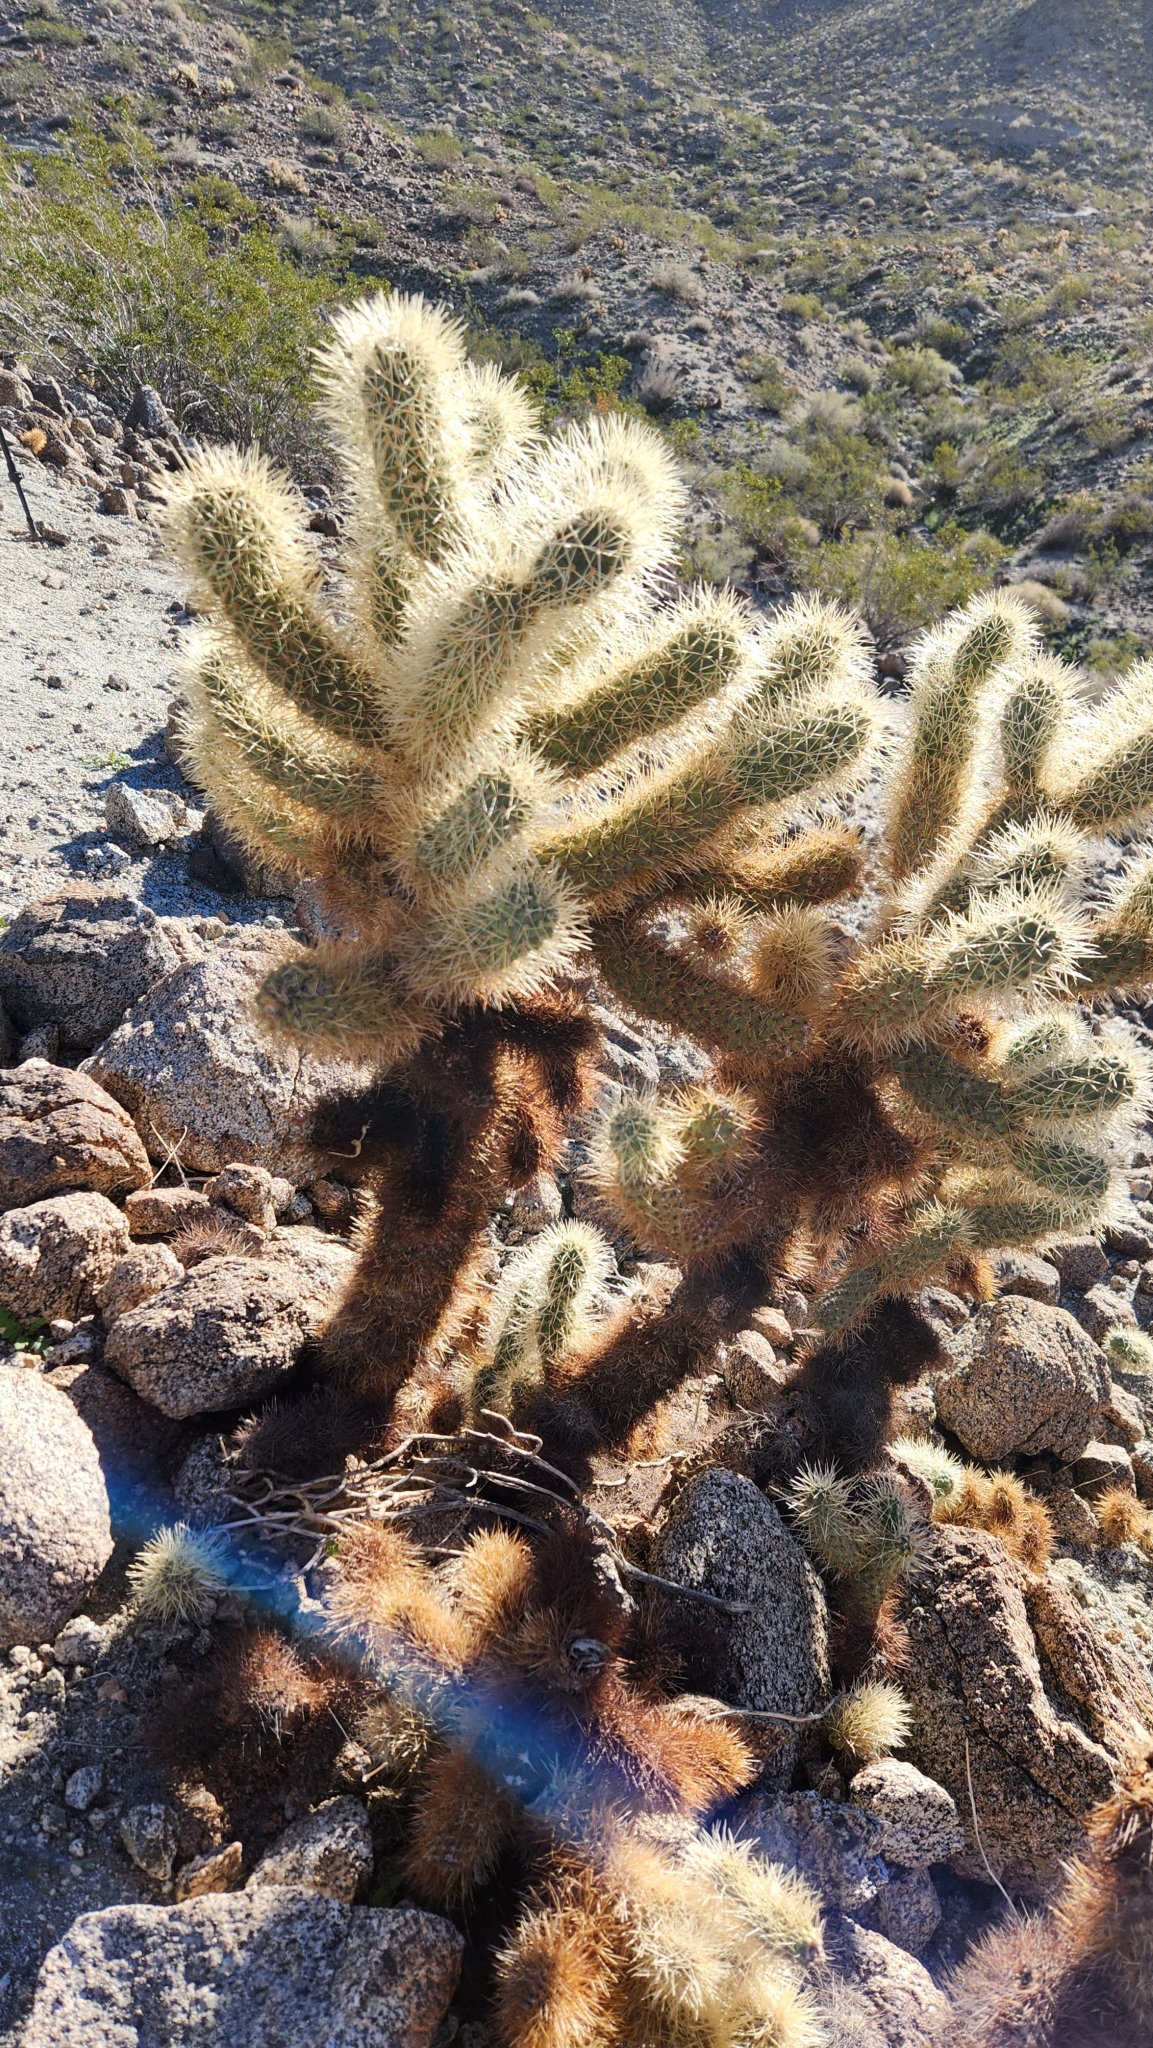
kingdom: Plantae
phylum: Tracheophyta
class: Magnoliopsida
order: Caryophyllales
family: Cactaceae
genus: Cylindropuntia
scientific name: Cylindropuntia fosbergii
